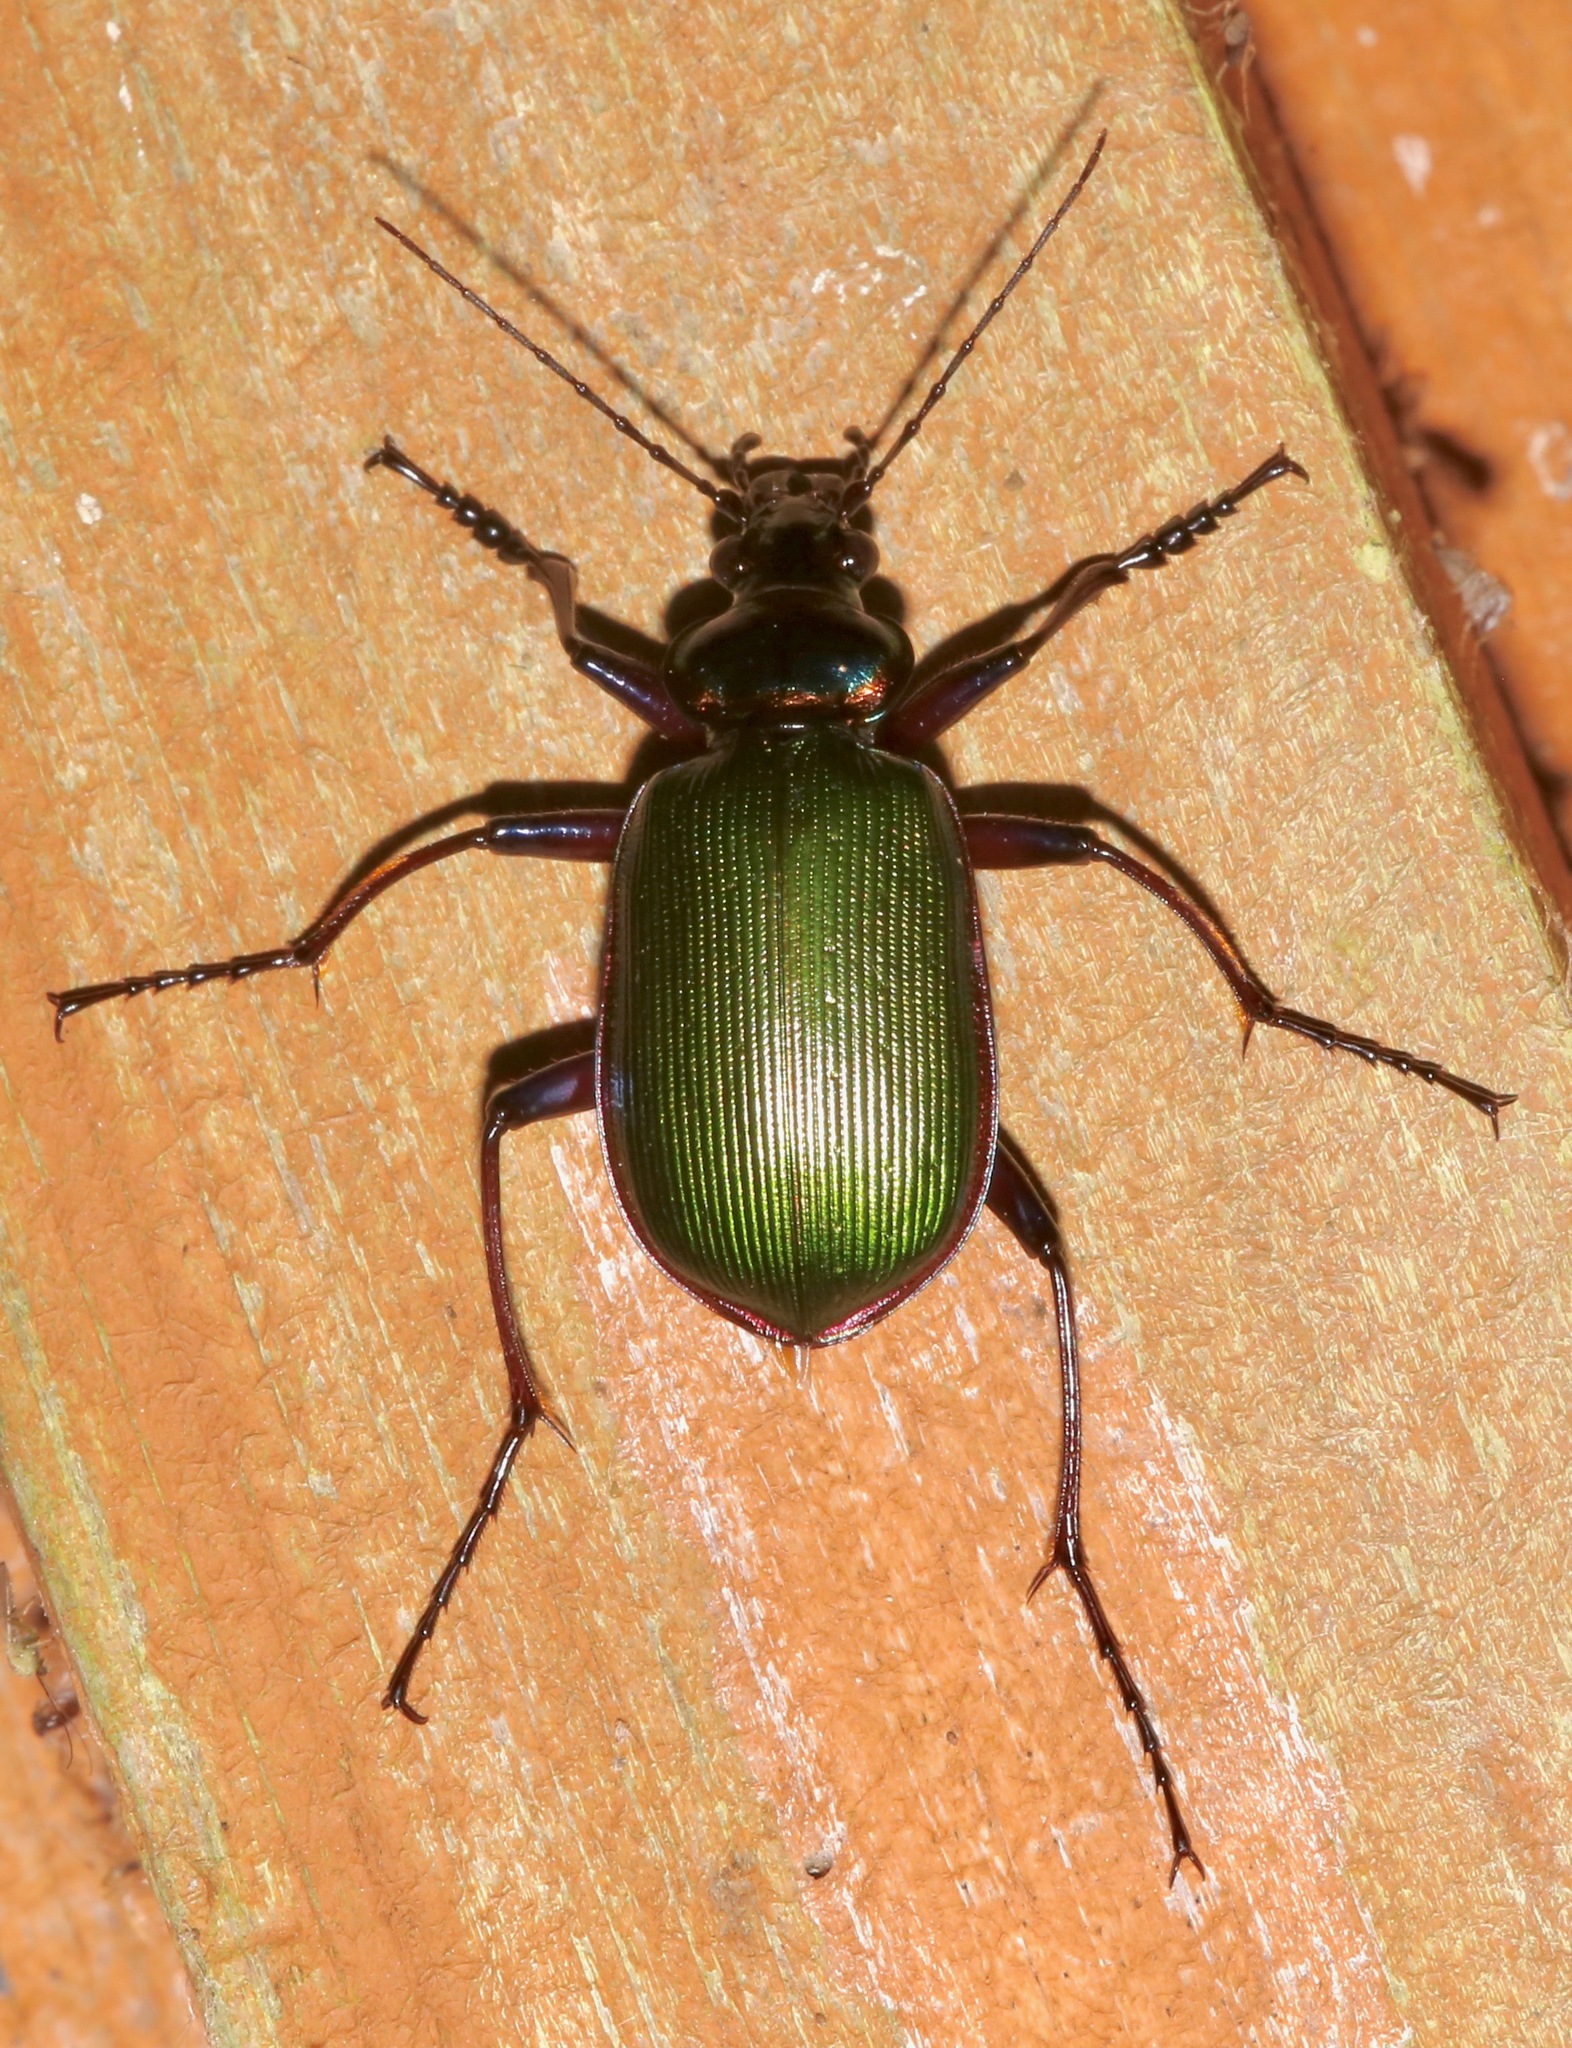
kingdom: Animalia
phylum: Arthropoda
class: Insecta
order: Coleoptera
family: Carabidae
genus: Calosoma
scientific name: Calosoma scrutator
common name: Fiery searcher beetle
